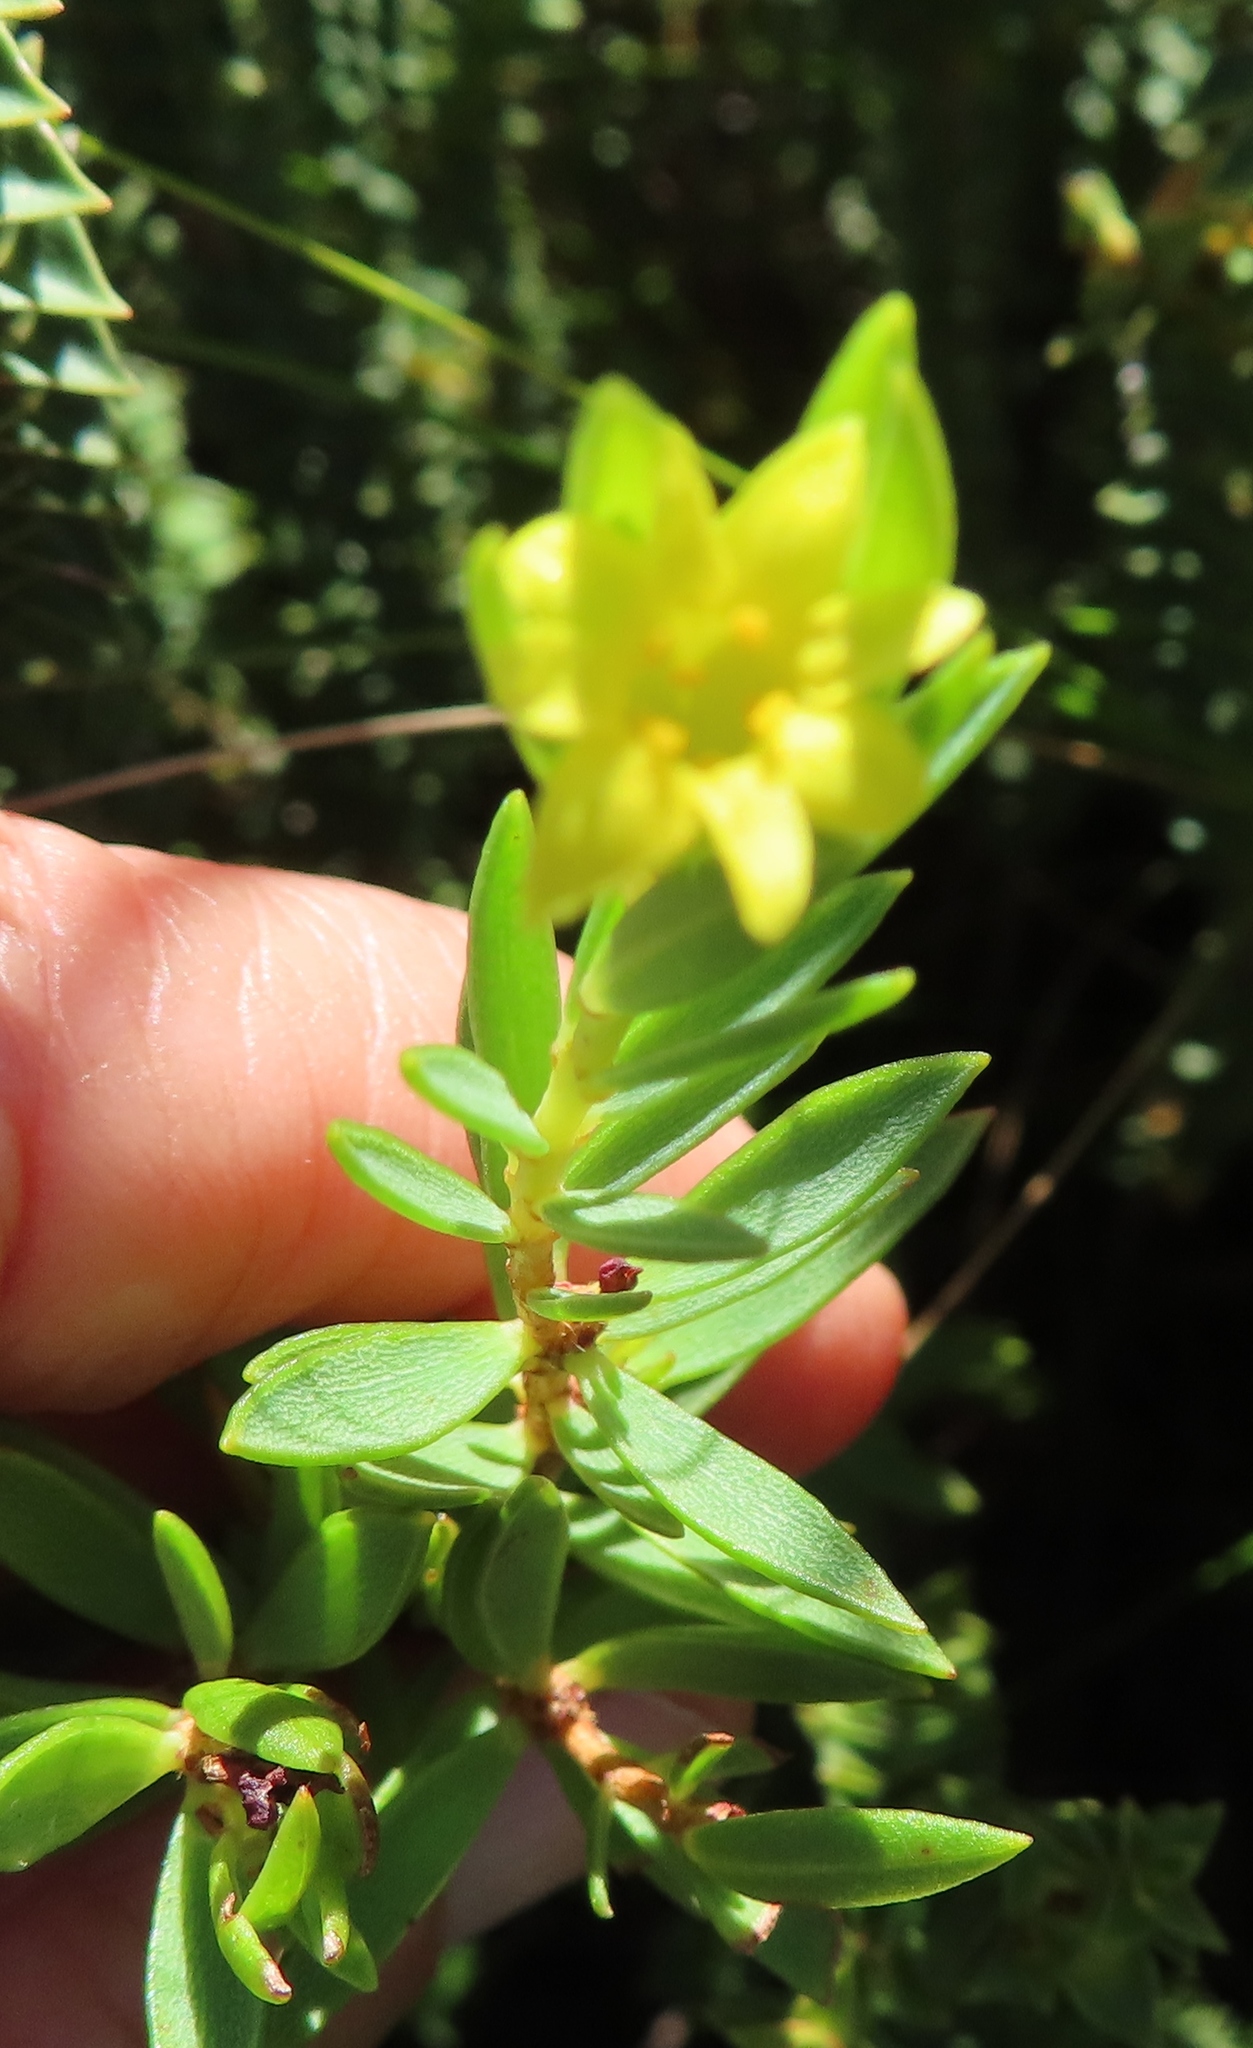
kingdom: Plantae
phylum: Tracheophyta
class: Magnoliopsida
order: Malvales
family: Thymelaeaceae
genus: Gnidia
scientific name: Gnidia juniperifolia
